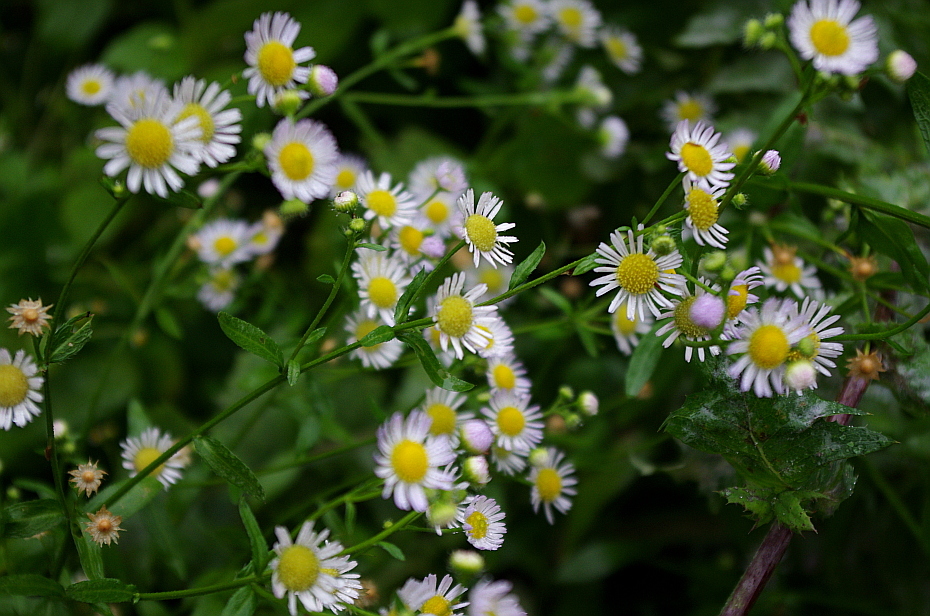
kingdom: Plantae
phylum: Tracheophyta
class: Magnoliopsida
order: Asterales
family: Asteraceae
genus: Erigeron
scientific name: Erigeron annuus
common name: Tall fleabane
